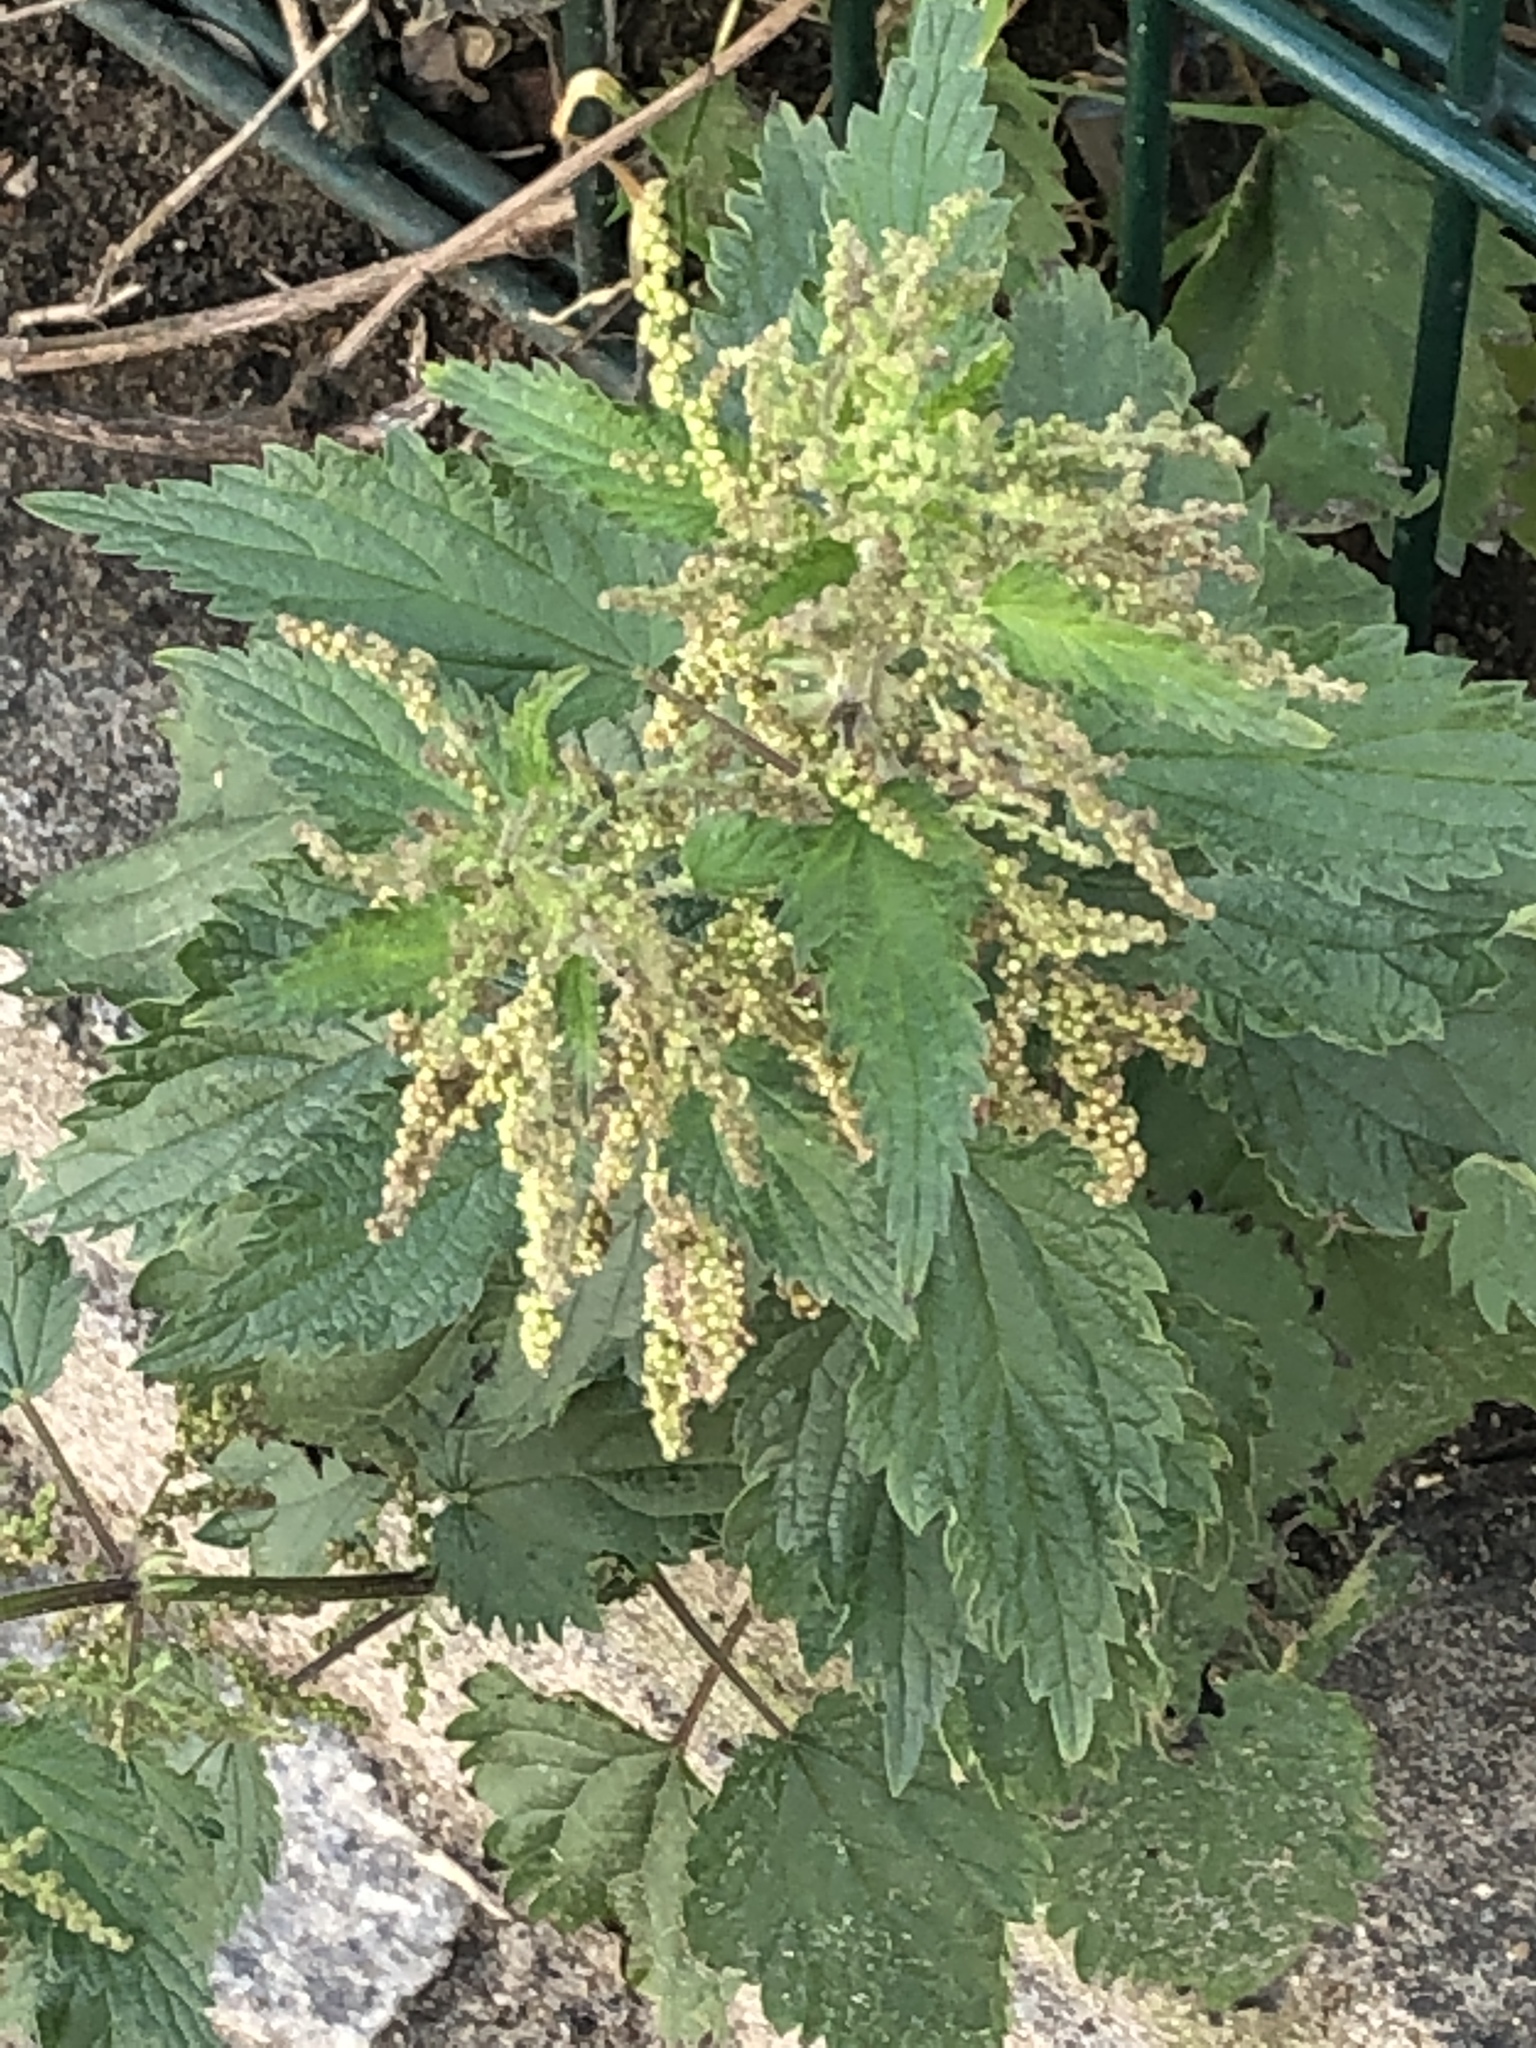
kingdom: Plantae
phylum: Tracheophyta
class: Magnoliopsida
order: Rosales
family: Urticaceae
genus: Urtica
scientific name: Urtica dioica
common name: Common nettle
